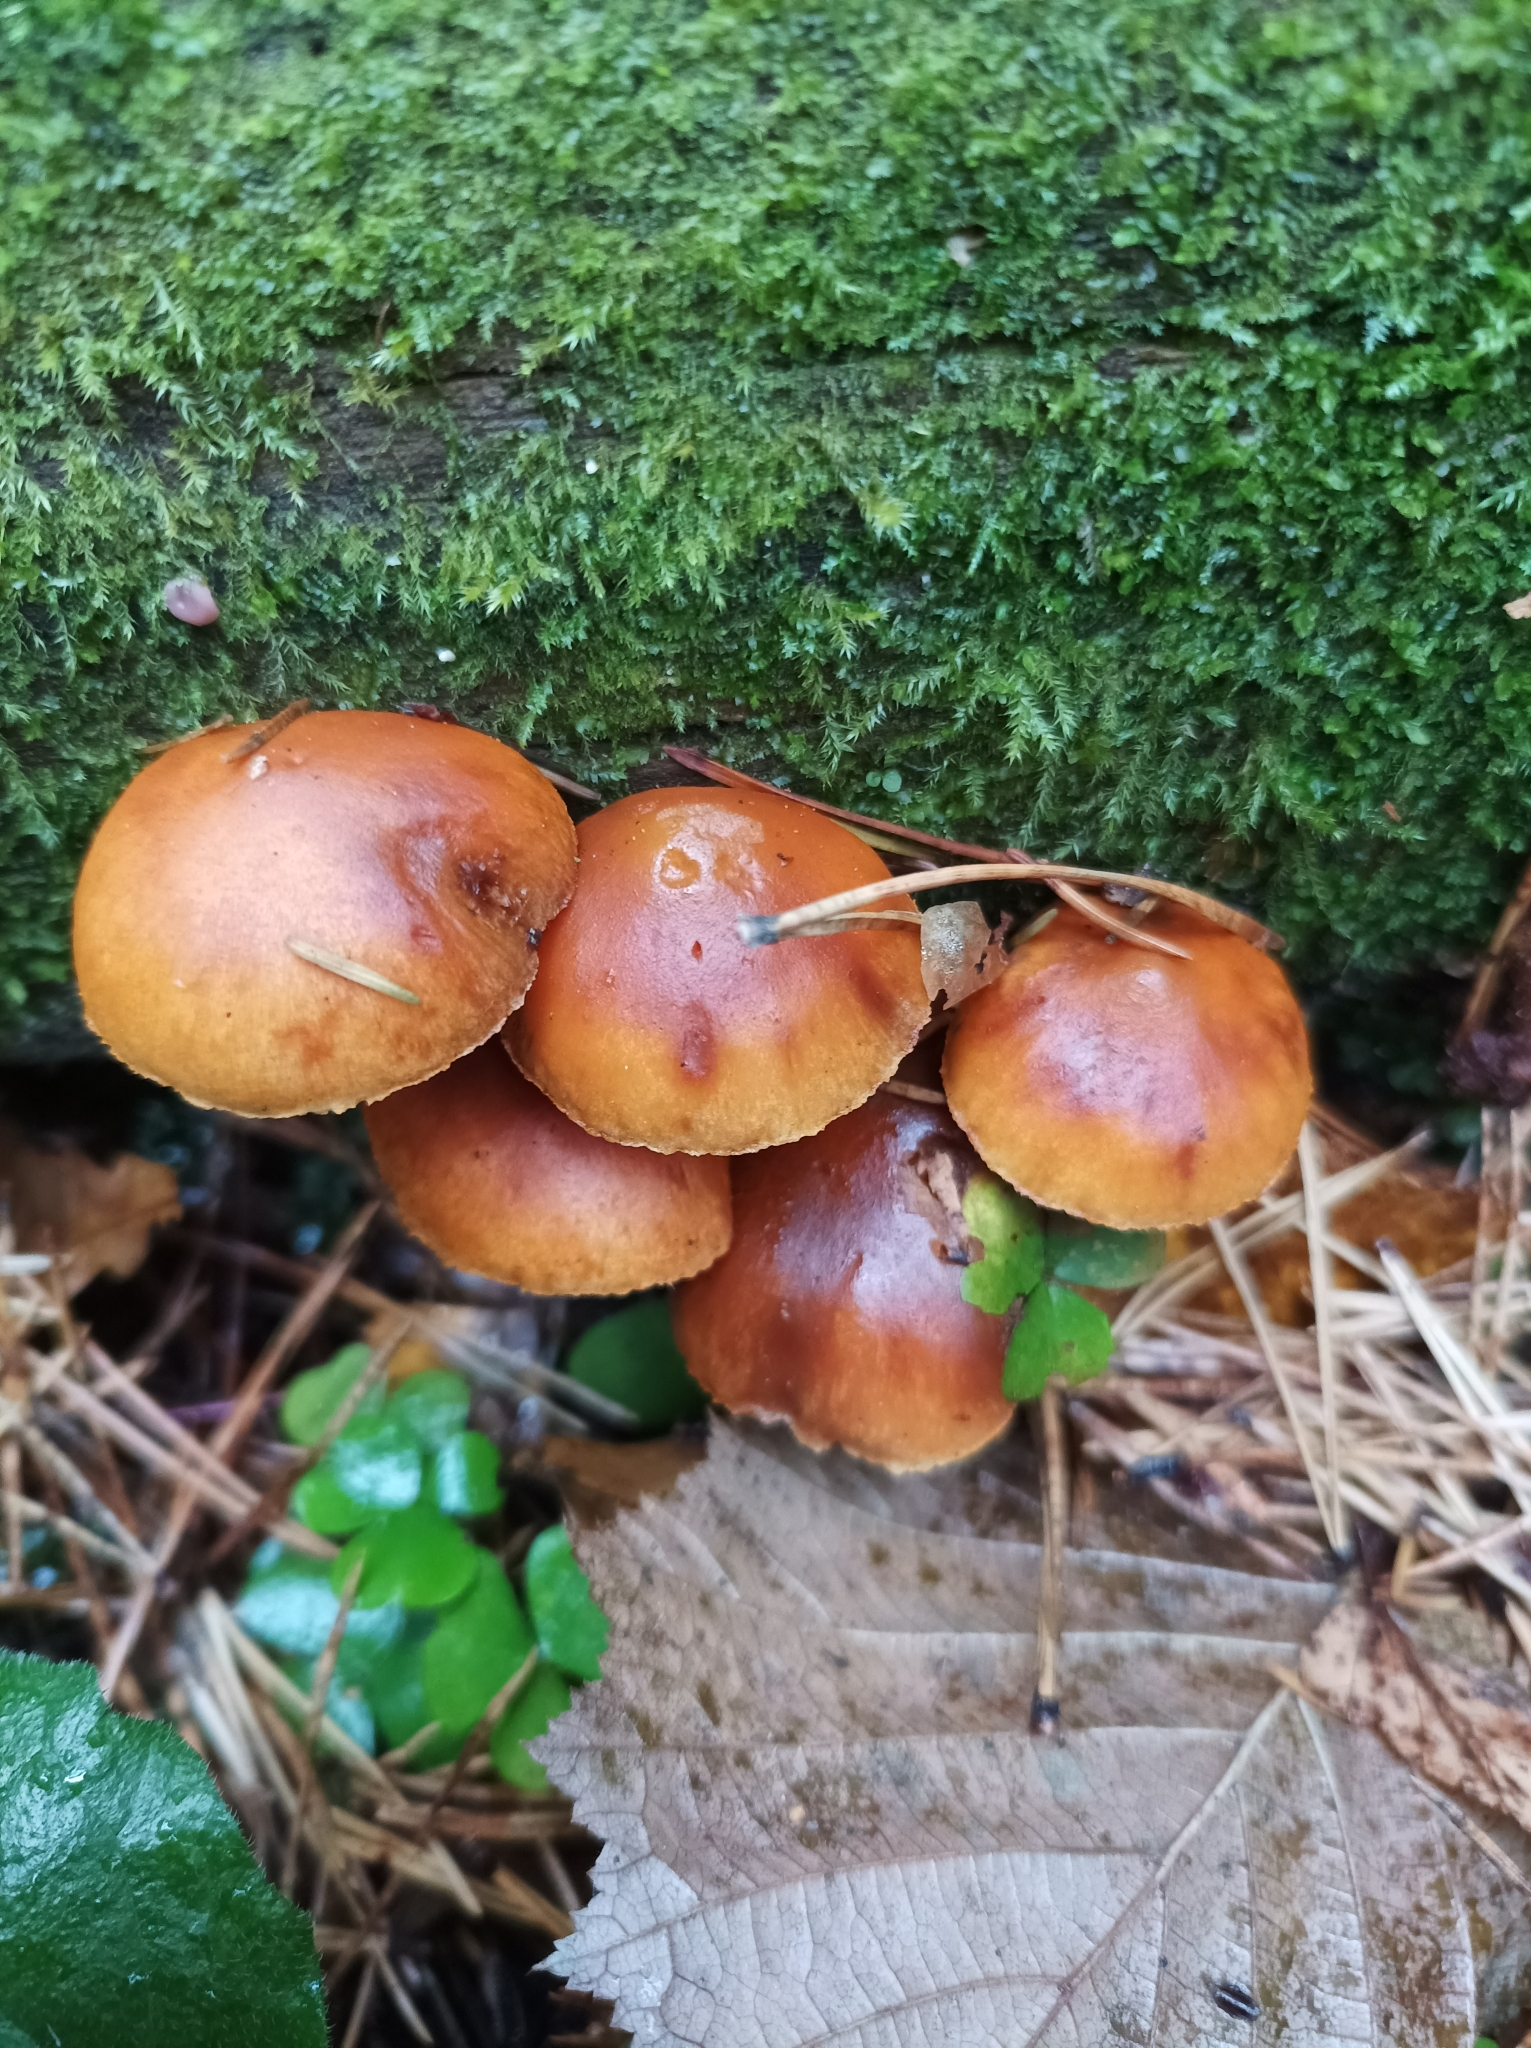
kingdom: Fungi
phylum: Basidiomycota
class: Agaricomycetes
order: Agaricales
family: Physalacriaceae
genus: Flammulina
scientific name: Flammulina
